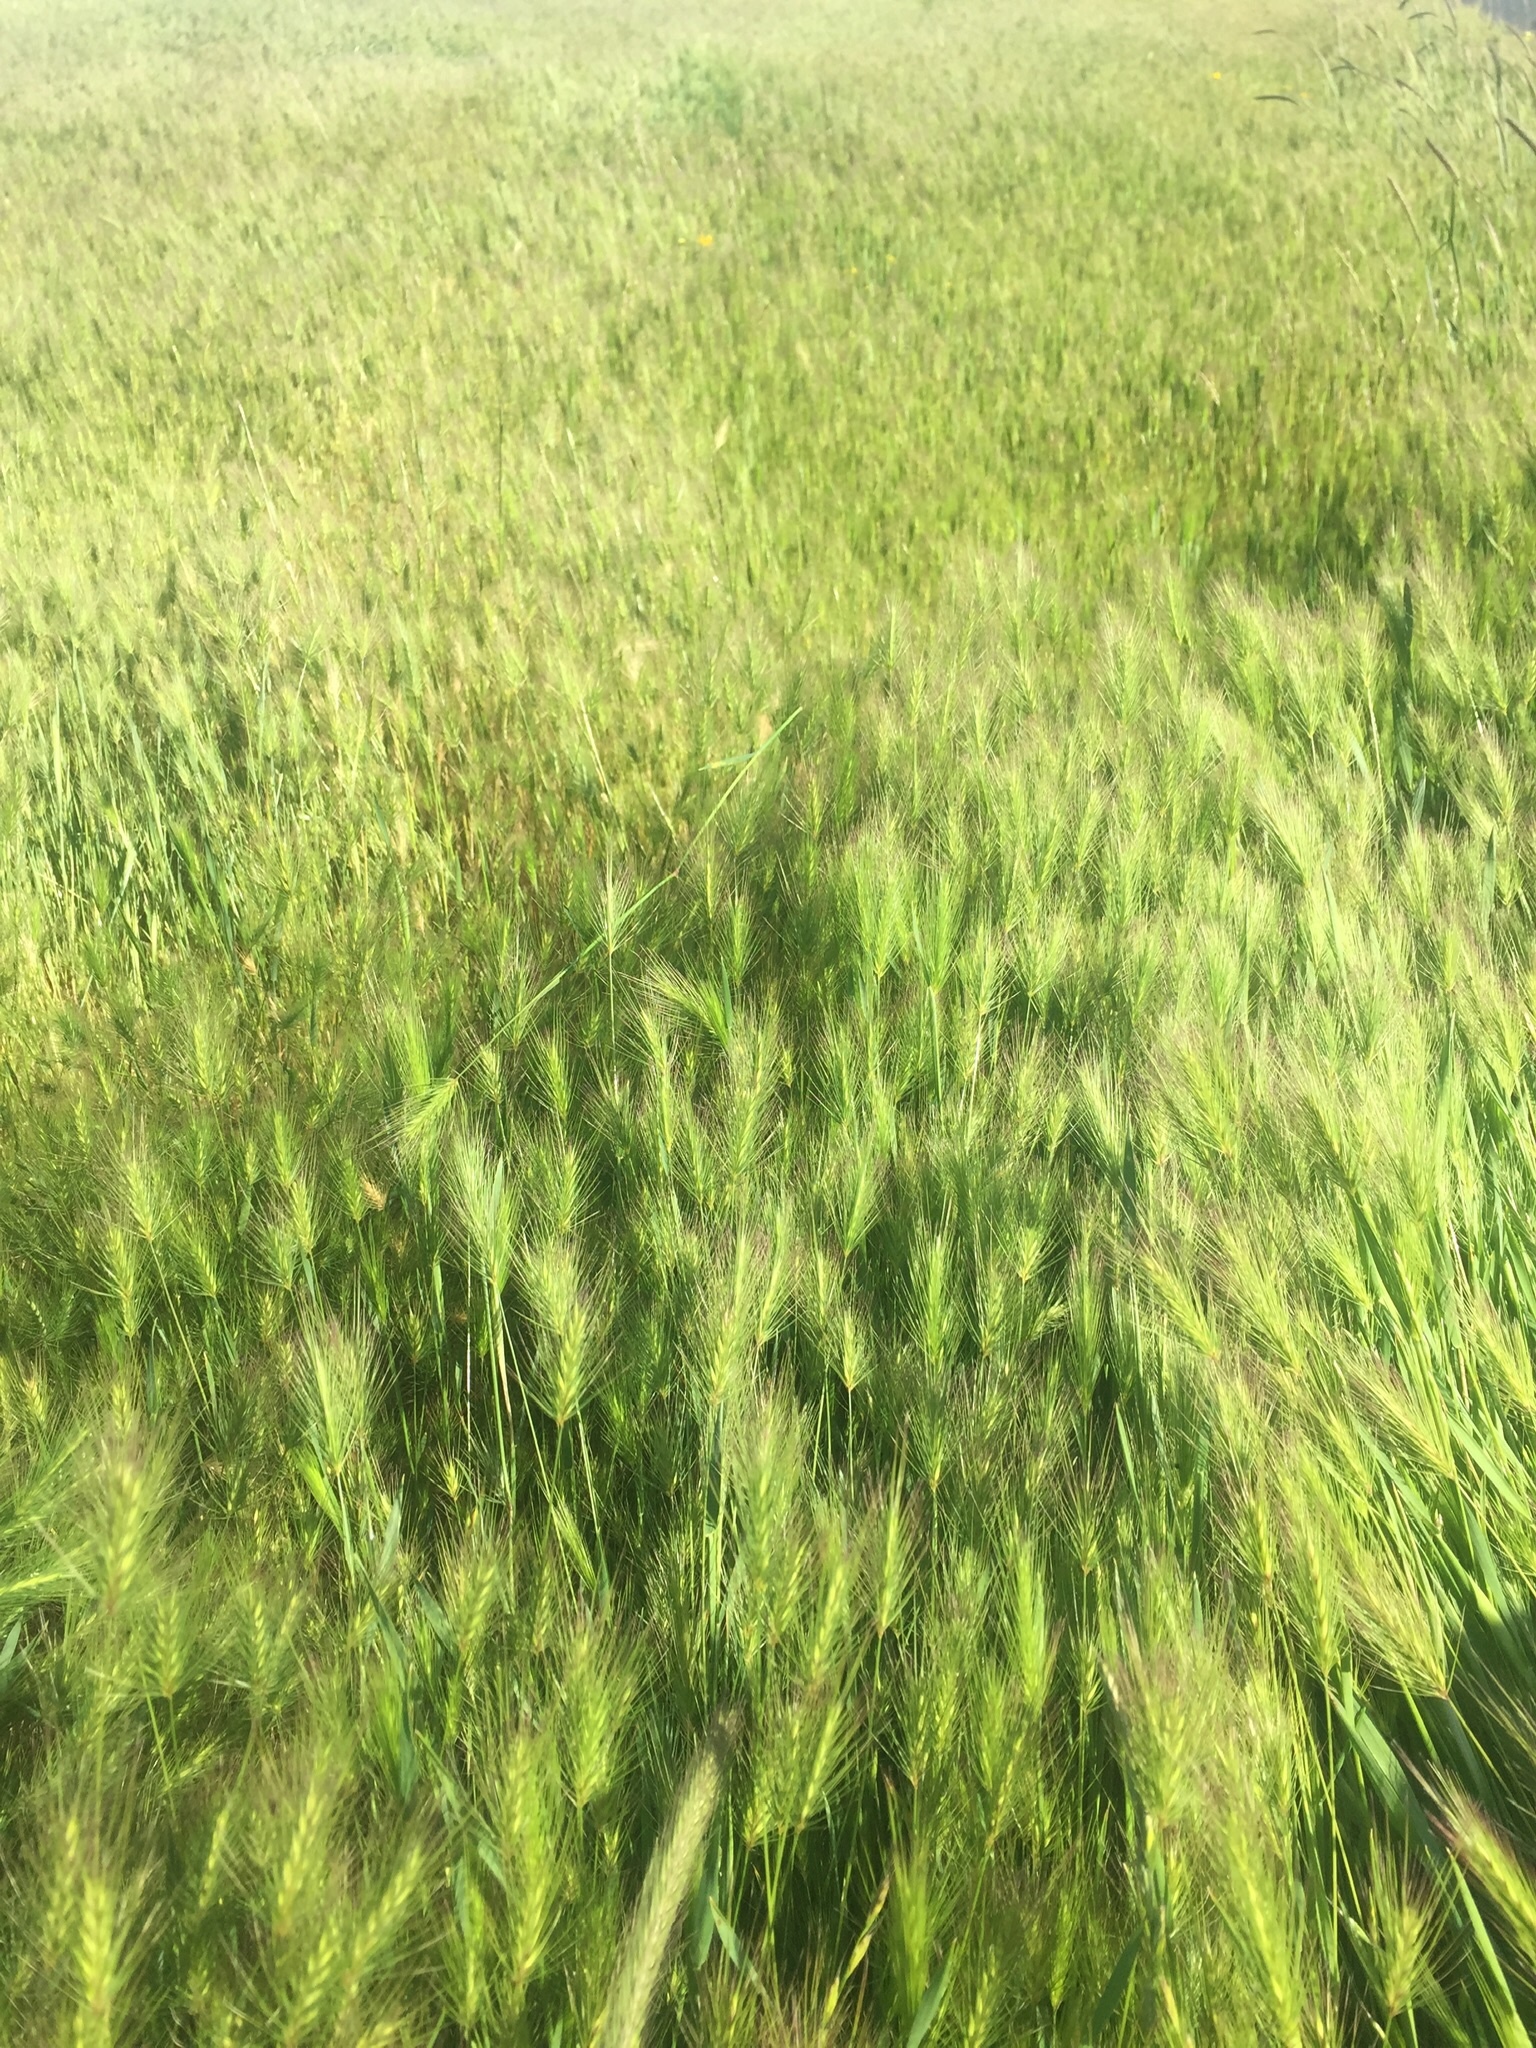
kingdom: Plantae
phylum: Tracheophyta
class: Liliopsida
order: Poales
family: Poaceae
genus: Hordeum
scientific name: Hordeum marinum
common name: Sea barley
